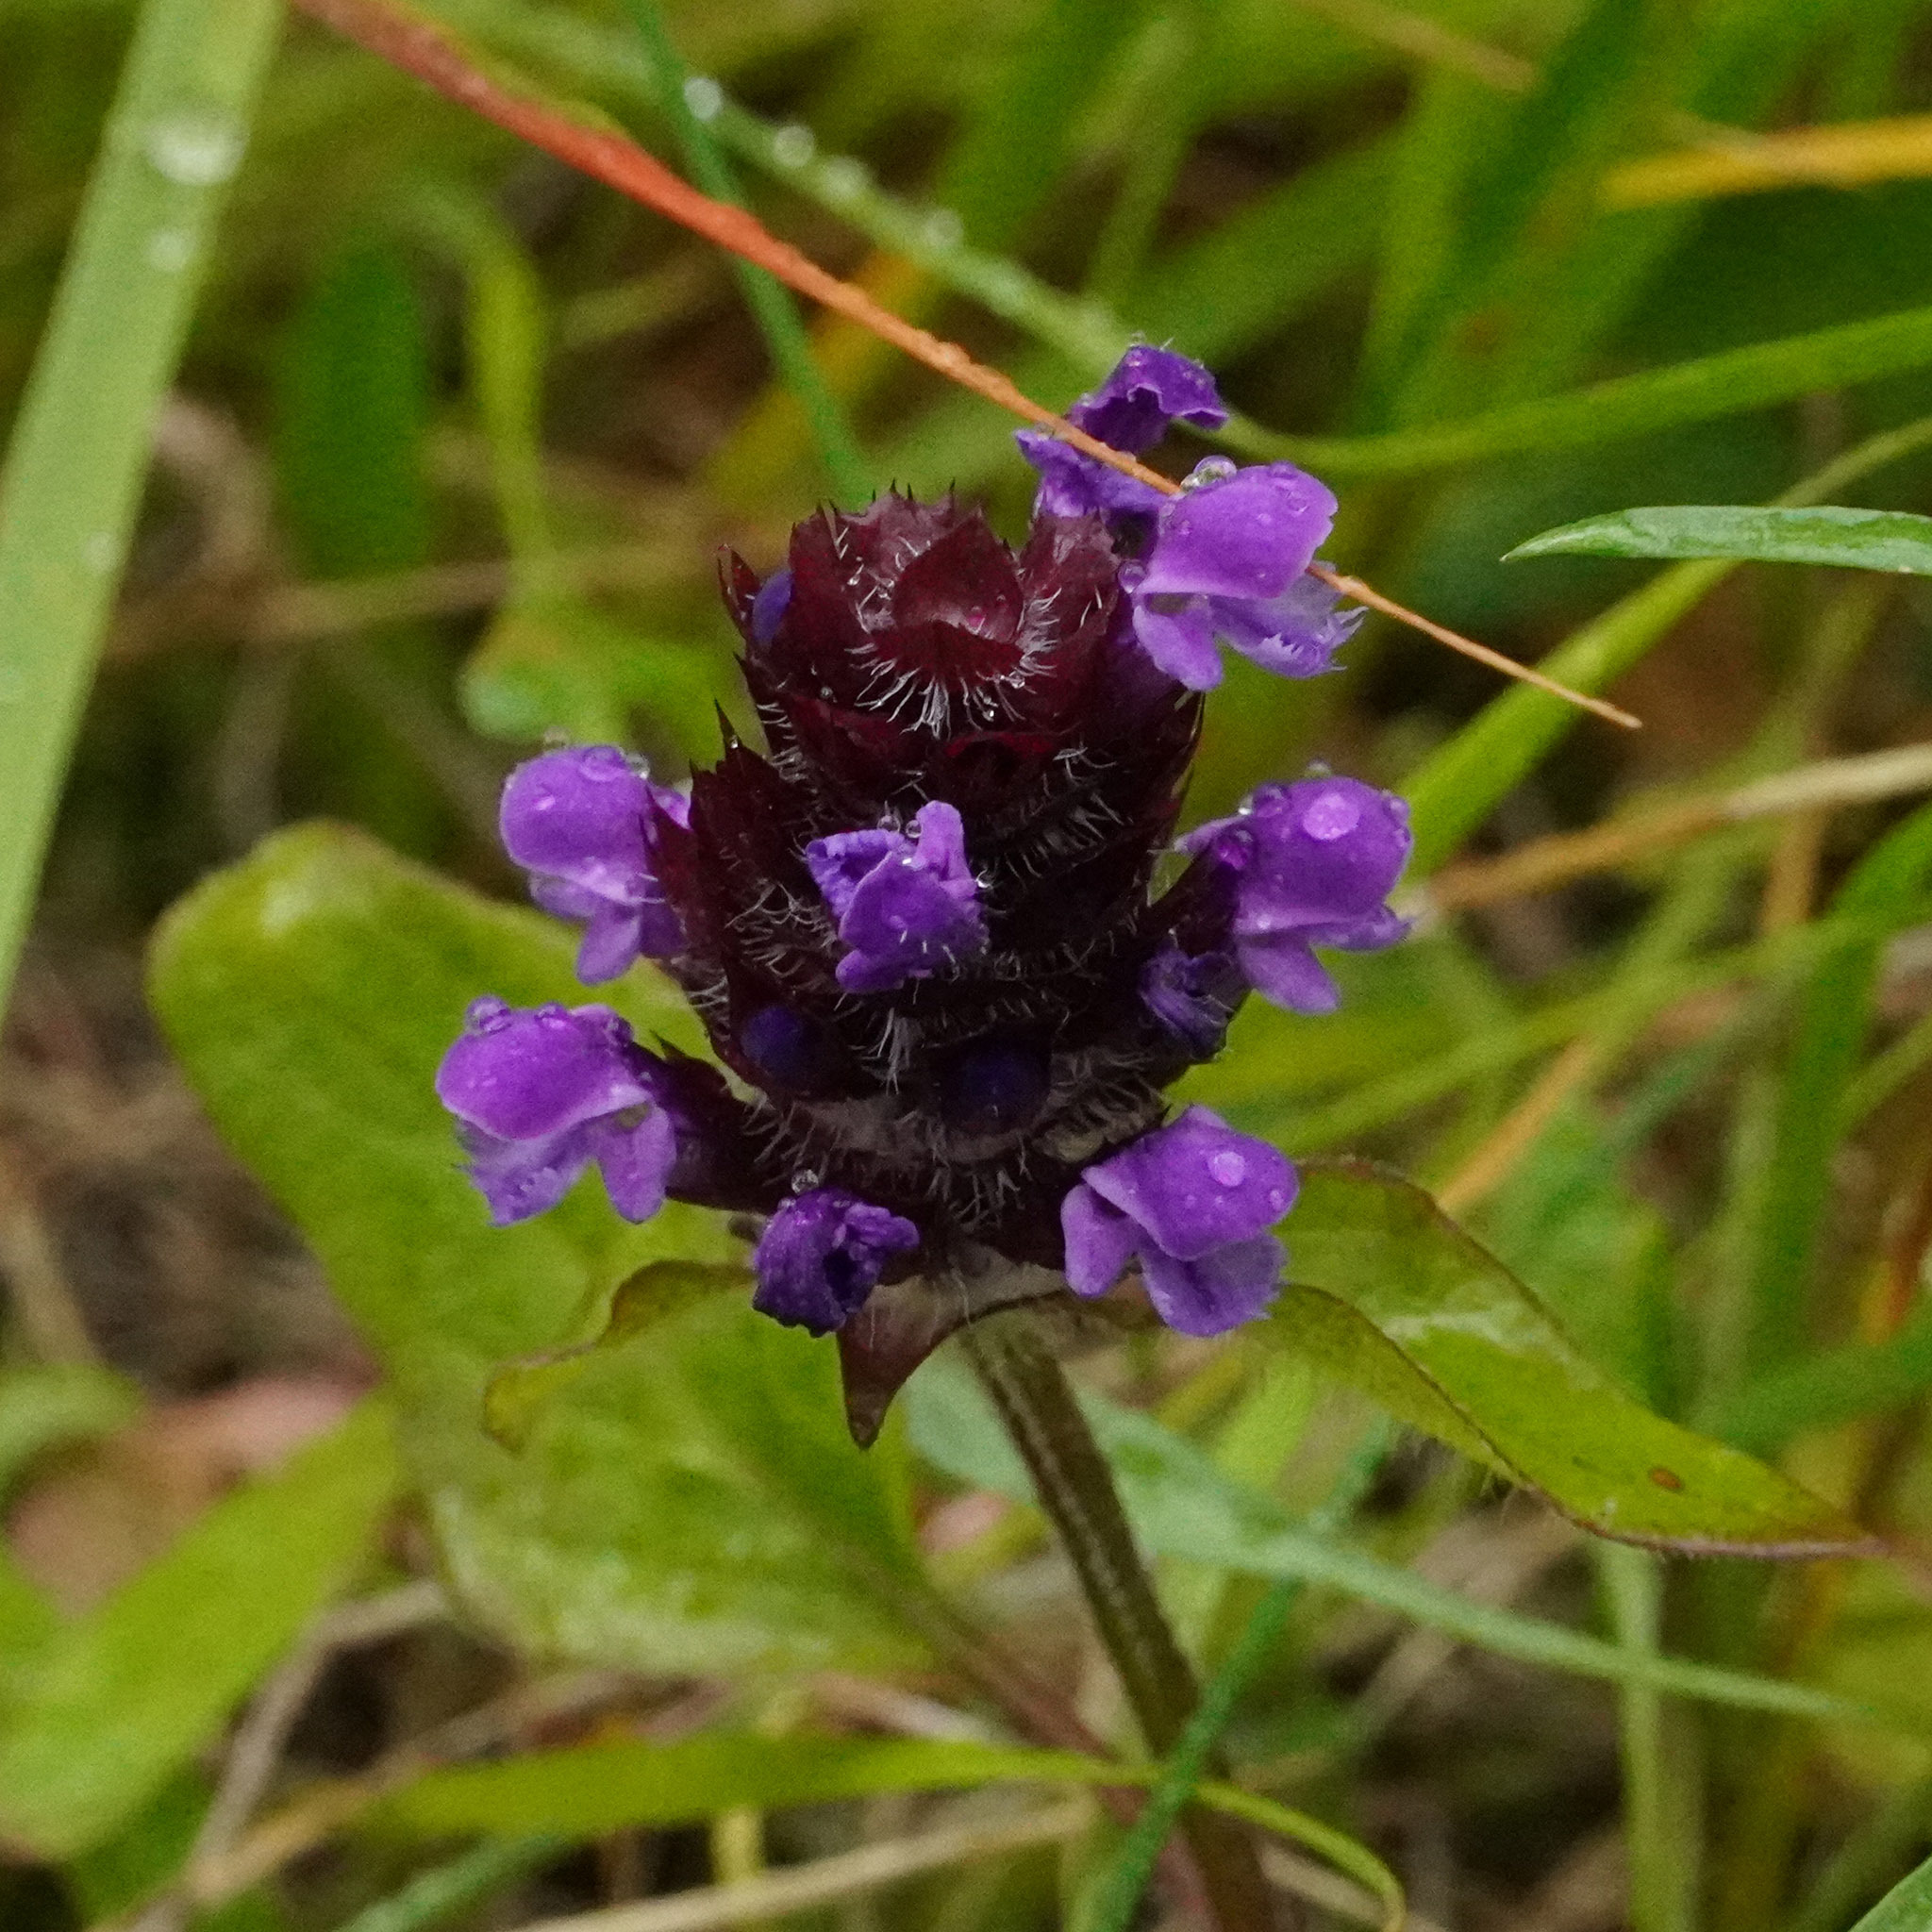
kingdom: Plantae
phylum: Tracheophyta
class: Magnoliopsida
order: Lamiales
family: Lamiaceae
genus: Prunella
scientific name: Prunella vulgaris
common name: Heal-all
